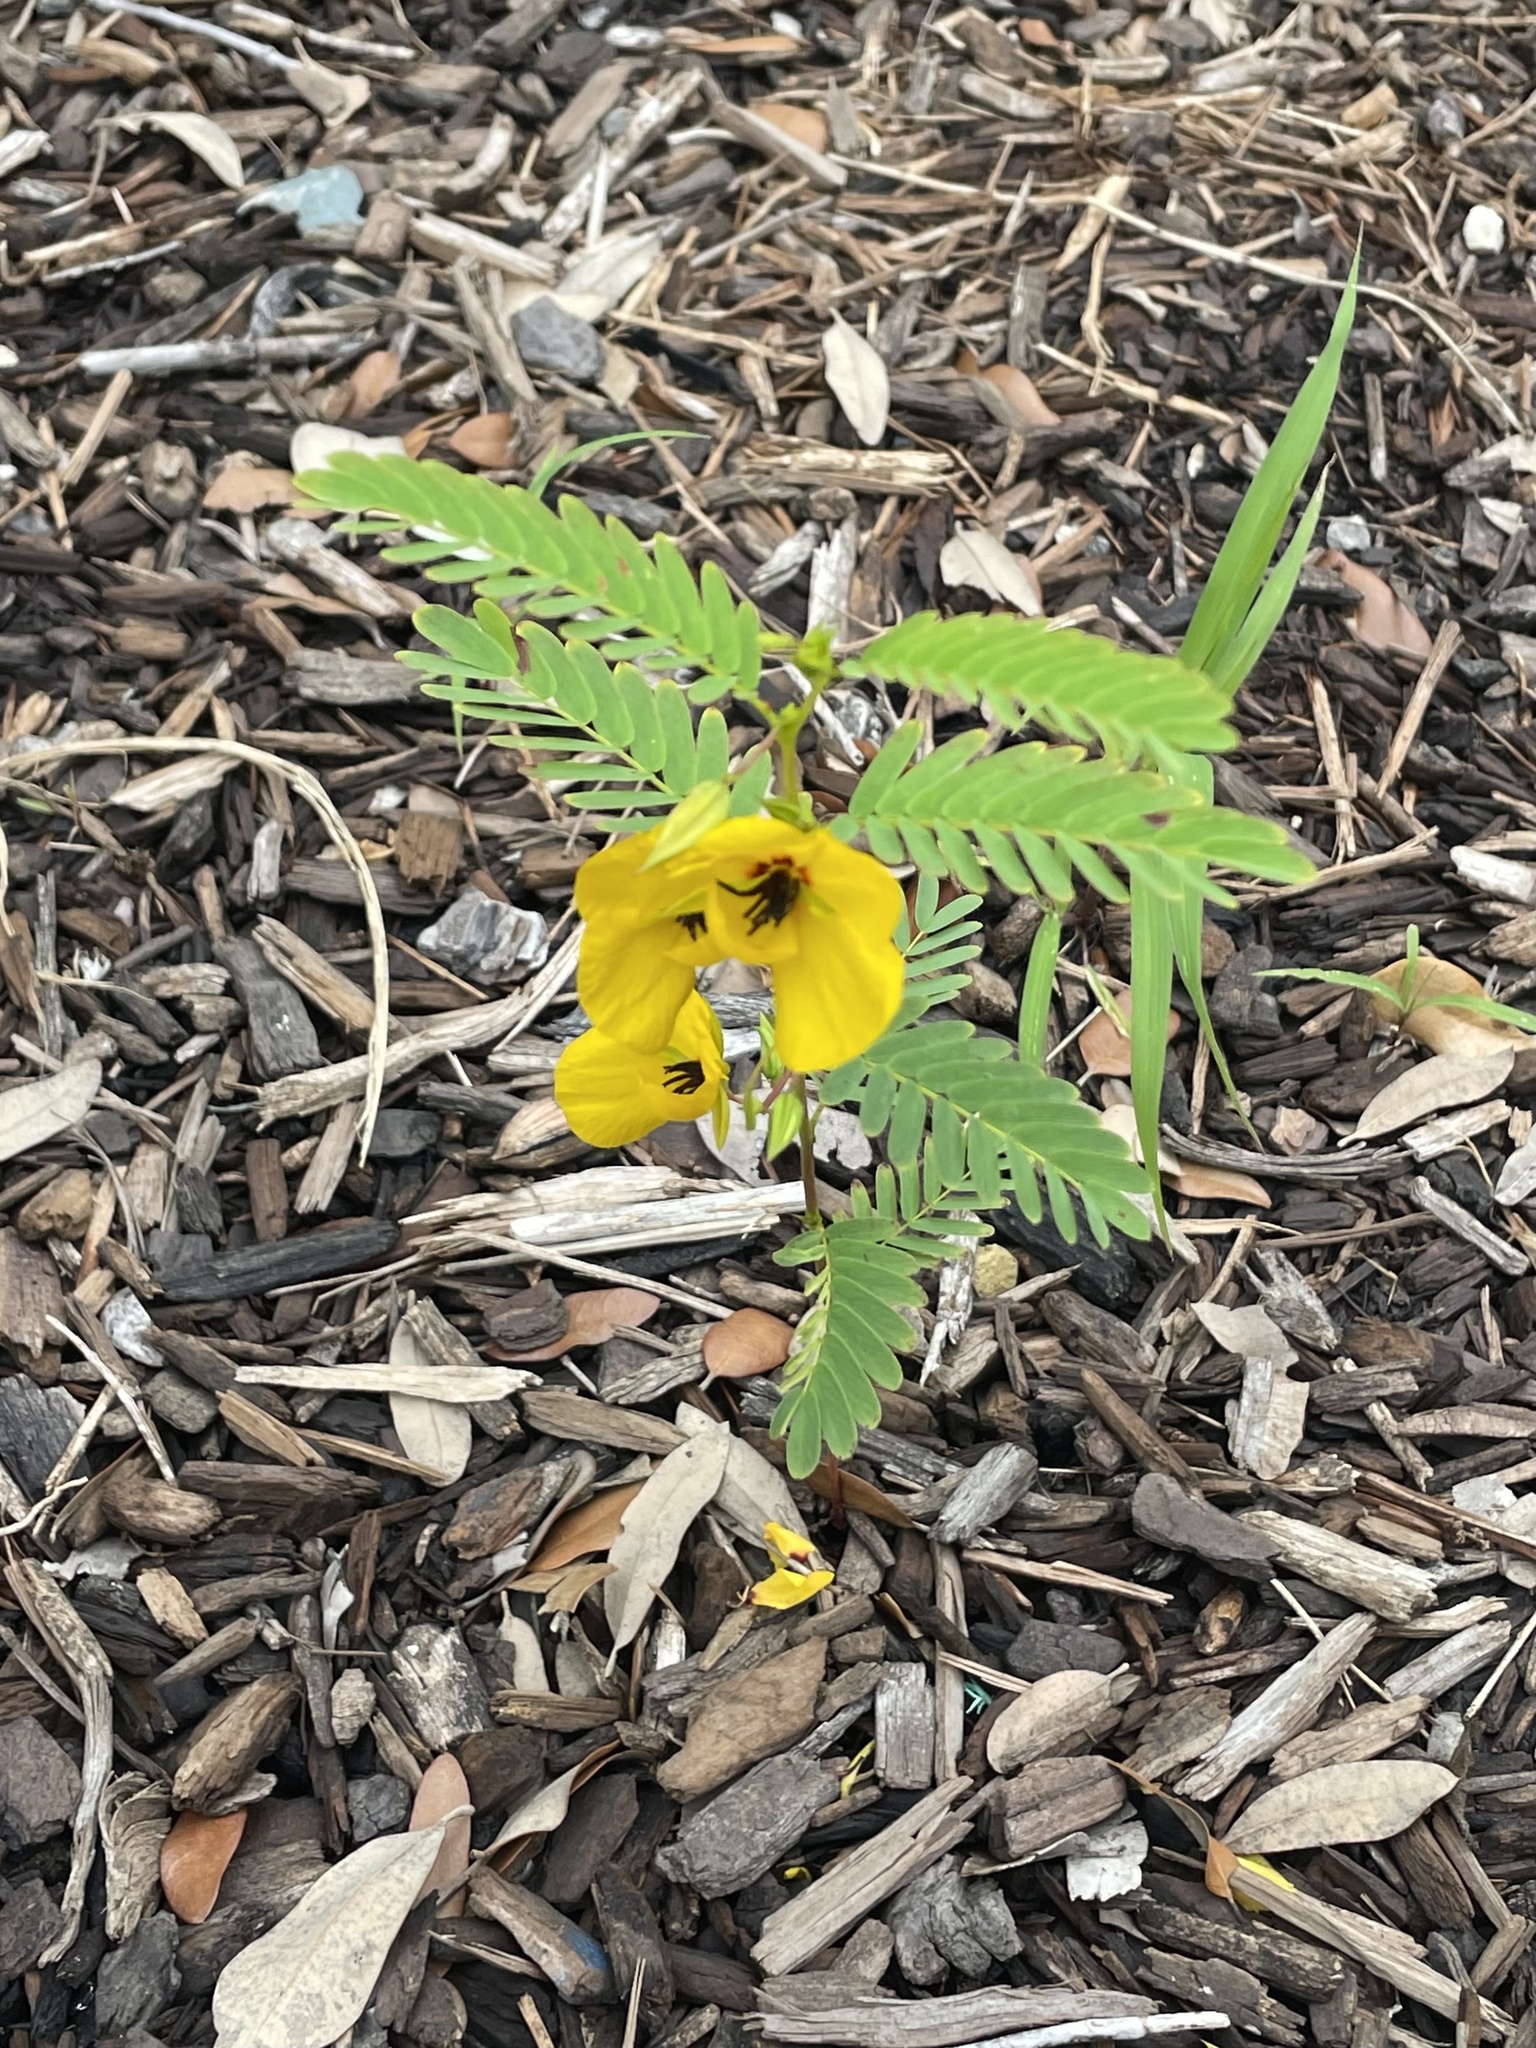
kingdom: Plantae
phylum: Tracheophyta
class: Magnoliopsida
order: Fabales
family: Fabaceae
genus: Chamaecrista
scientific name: Chamaecrista fasciculata
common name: Golden cassia
